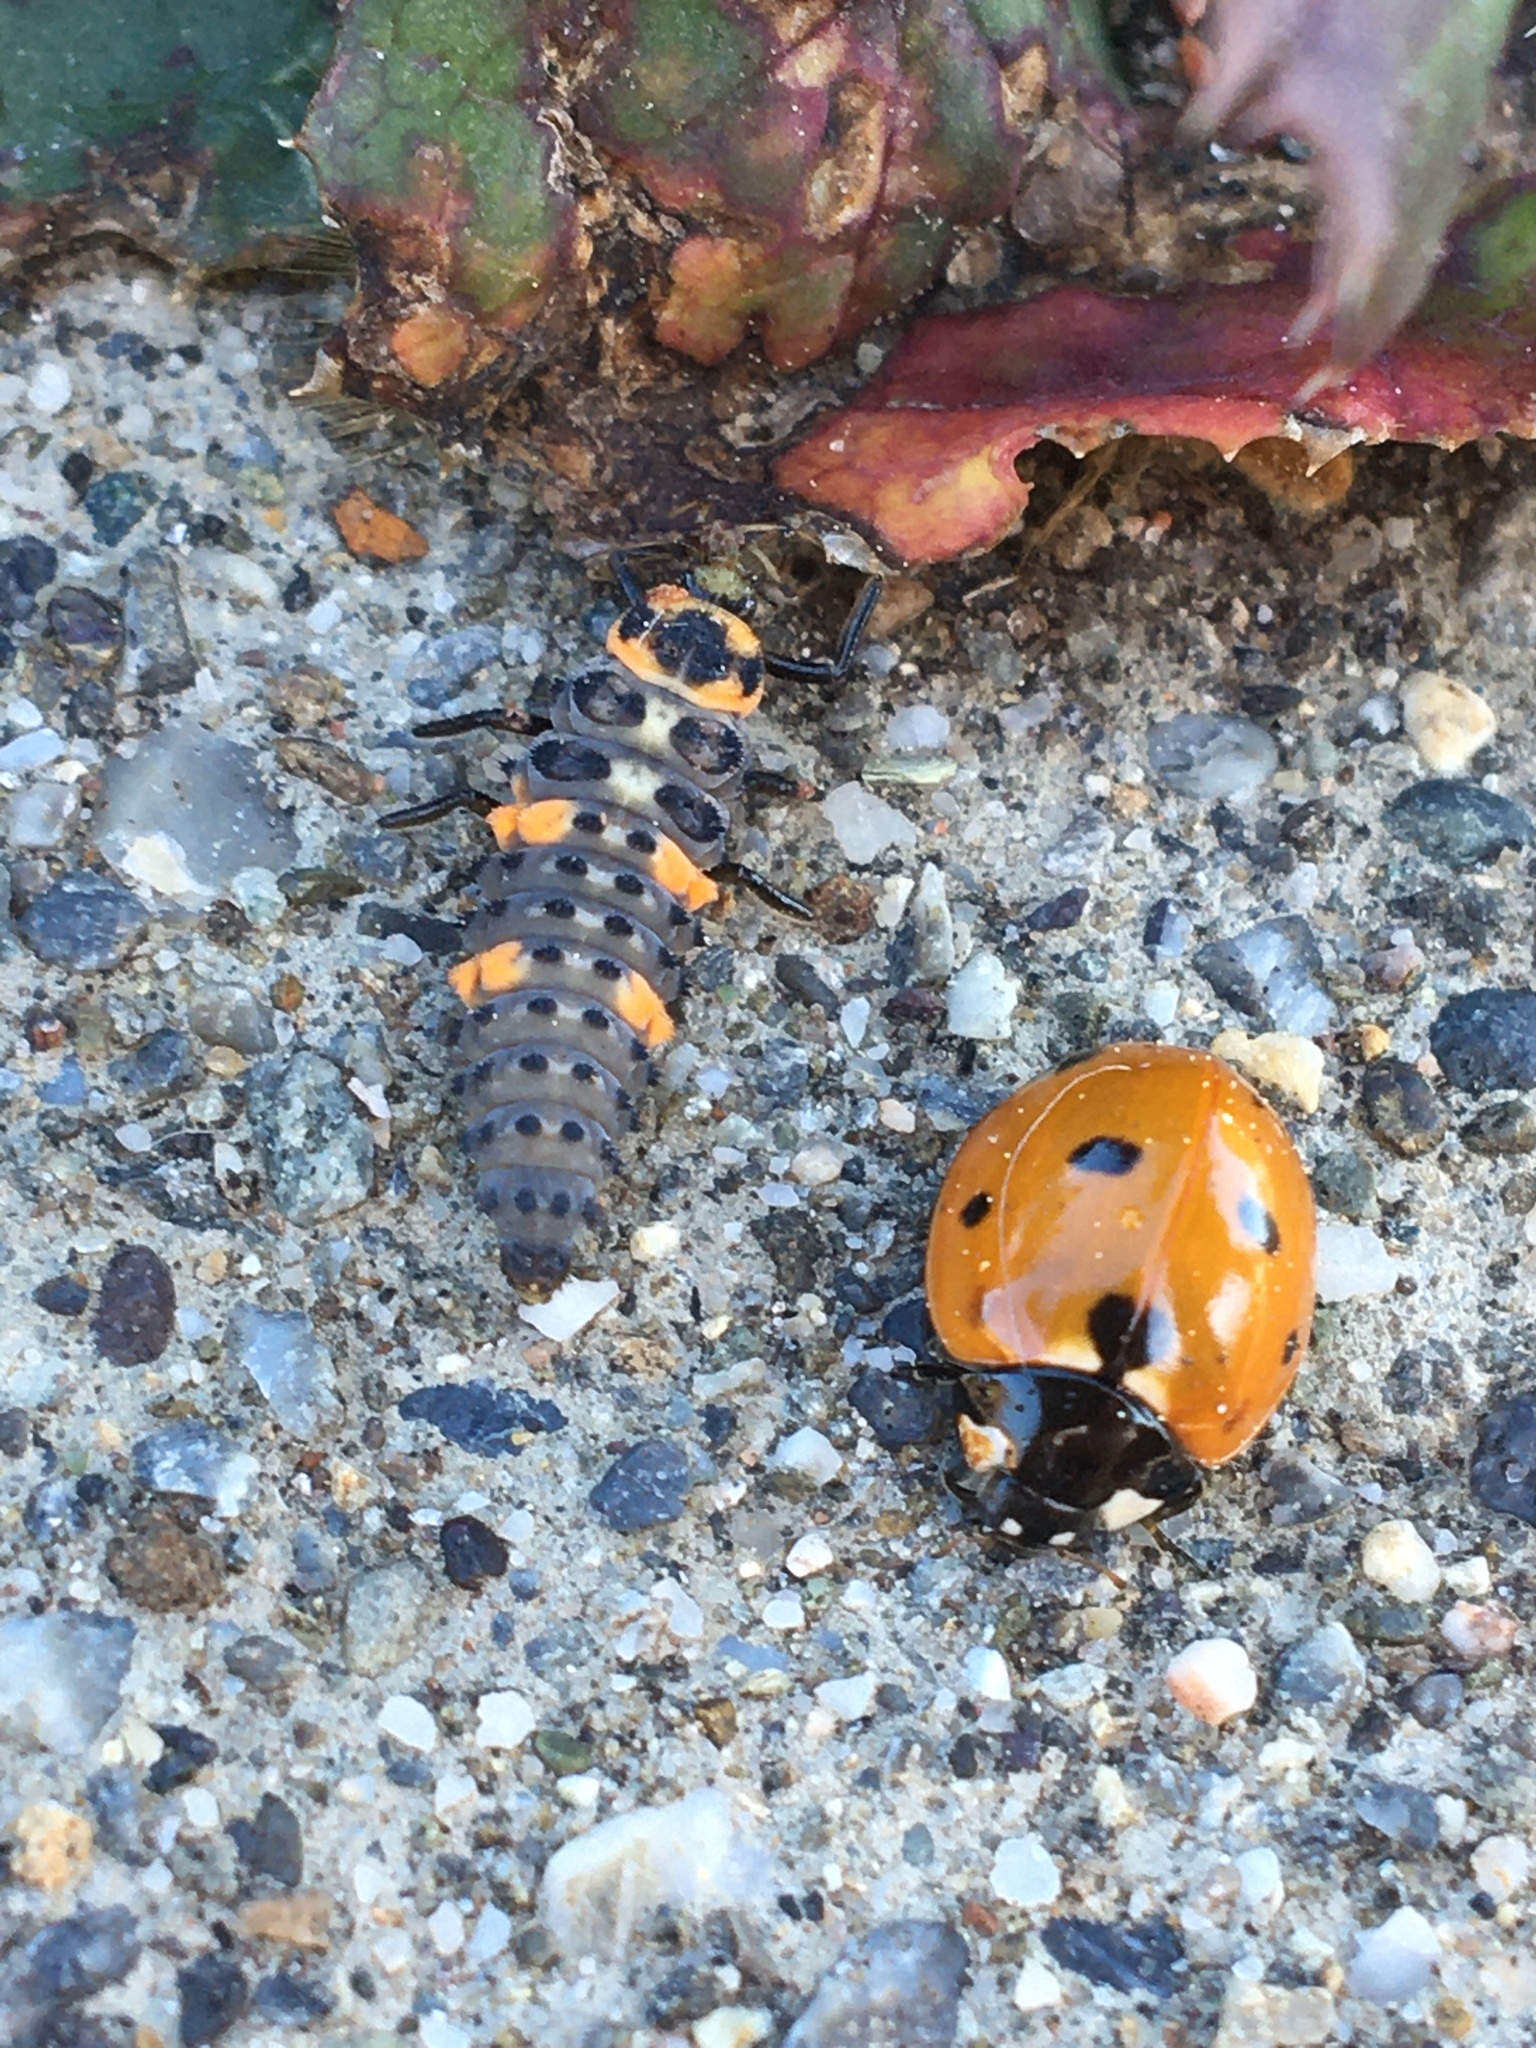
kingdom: Animalia
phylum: Arthropoda
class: Insecta
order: Coleoptera
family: Coccinellidae
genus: Coccinella
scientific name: Coccinella septempunctata
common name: Sevenspotted lady beetle
